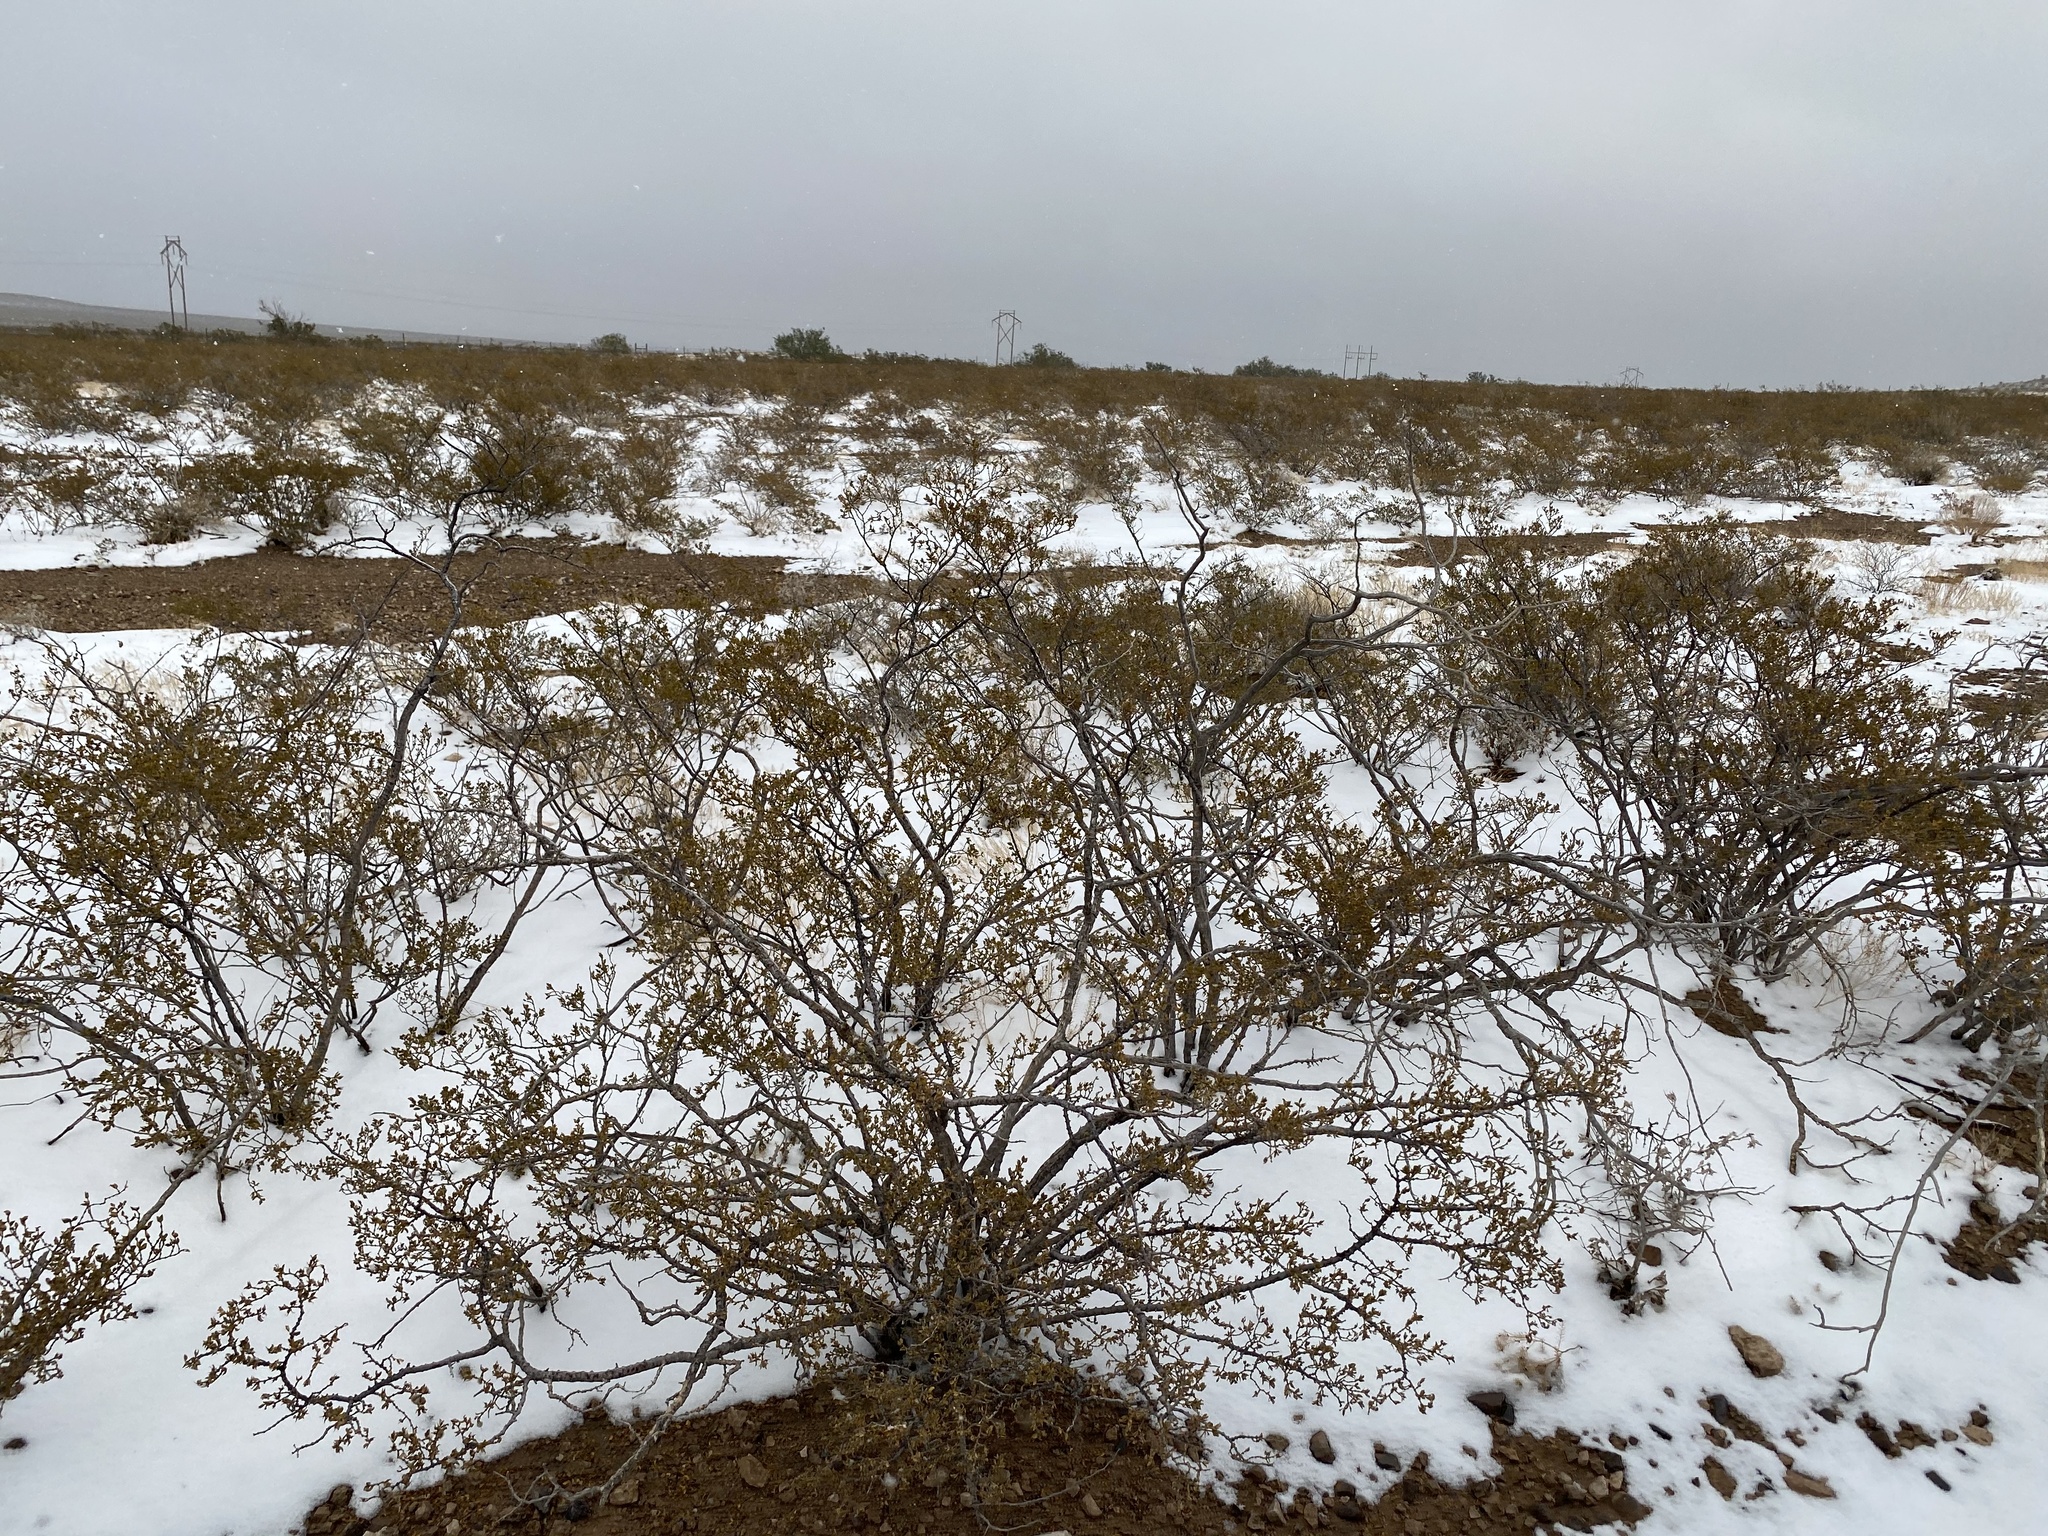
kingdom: Plantae
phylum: Tracheophyta
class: Magnoliopsida
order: Zygophyllales
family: Zygophyllaceae
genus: Larrea
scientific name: Larrea tridentata
